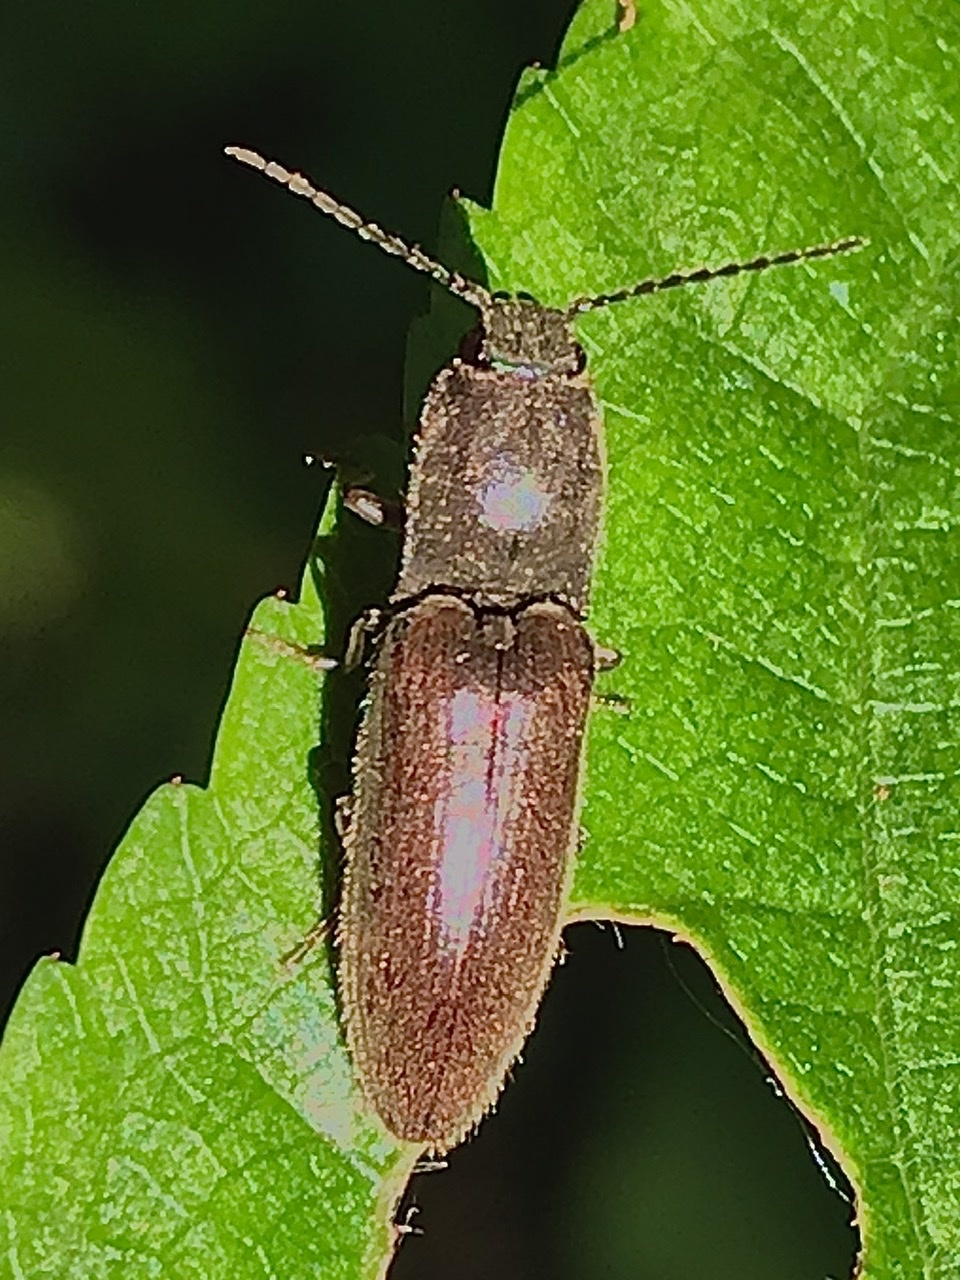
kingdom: Animalia
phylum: Arthropoda
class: Insecta
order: Coleoptera
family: Elateridae
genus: Athous
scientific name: Athous haemorrhoidalis
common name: Red-brown click beetle
